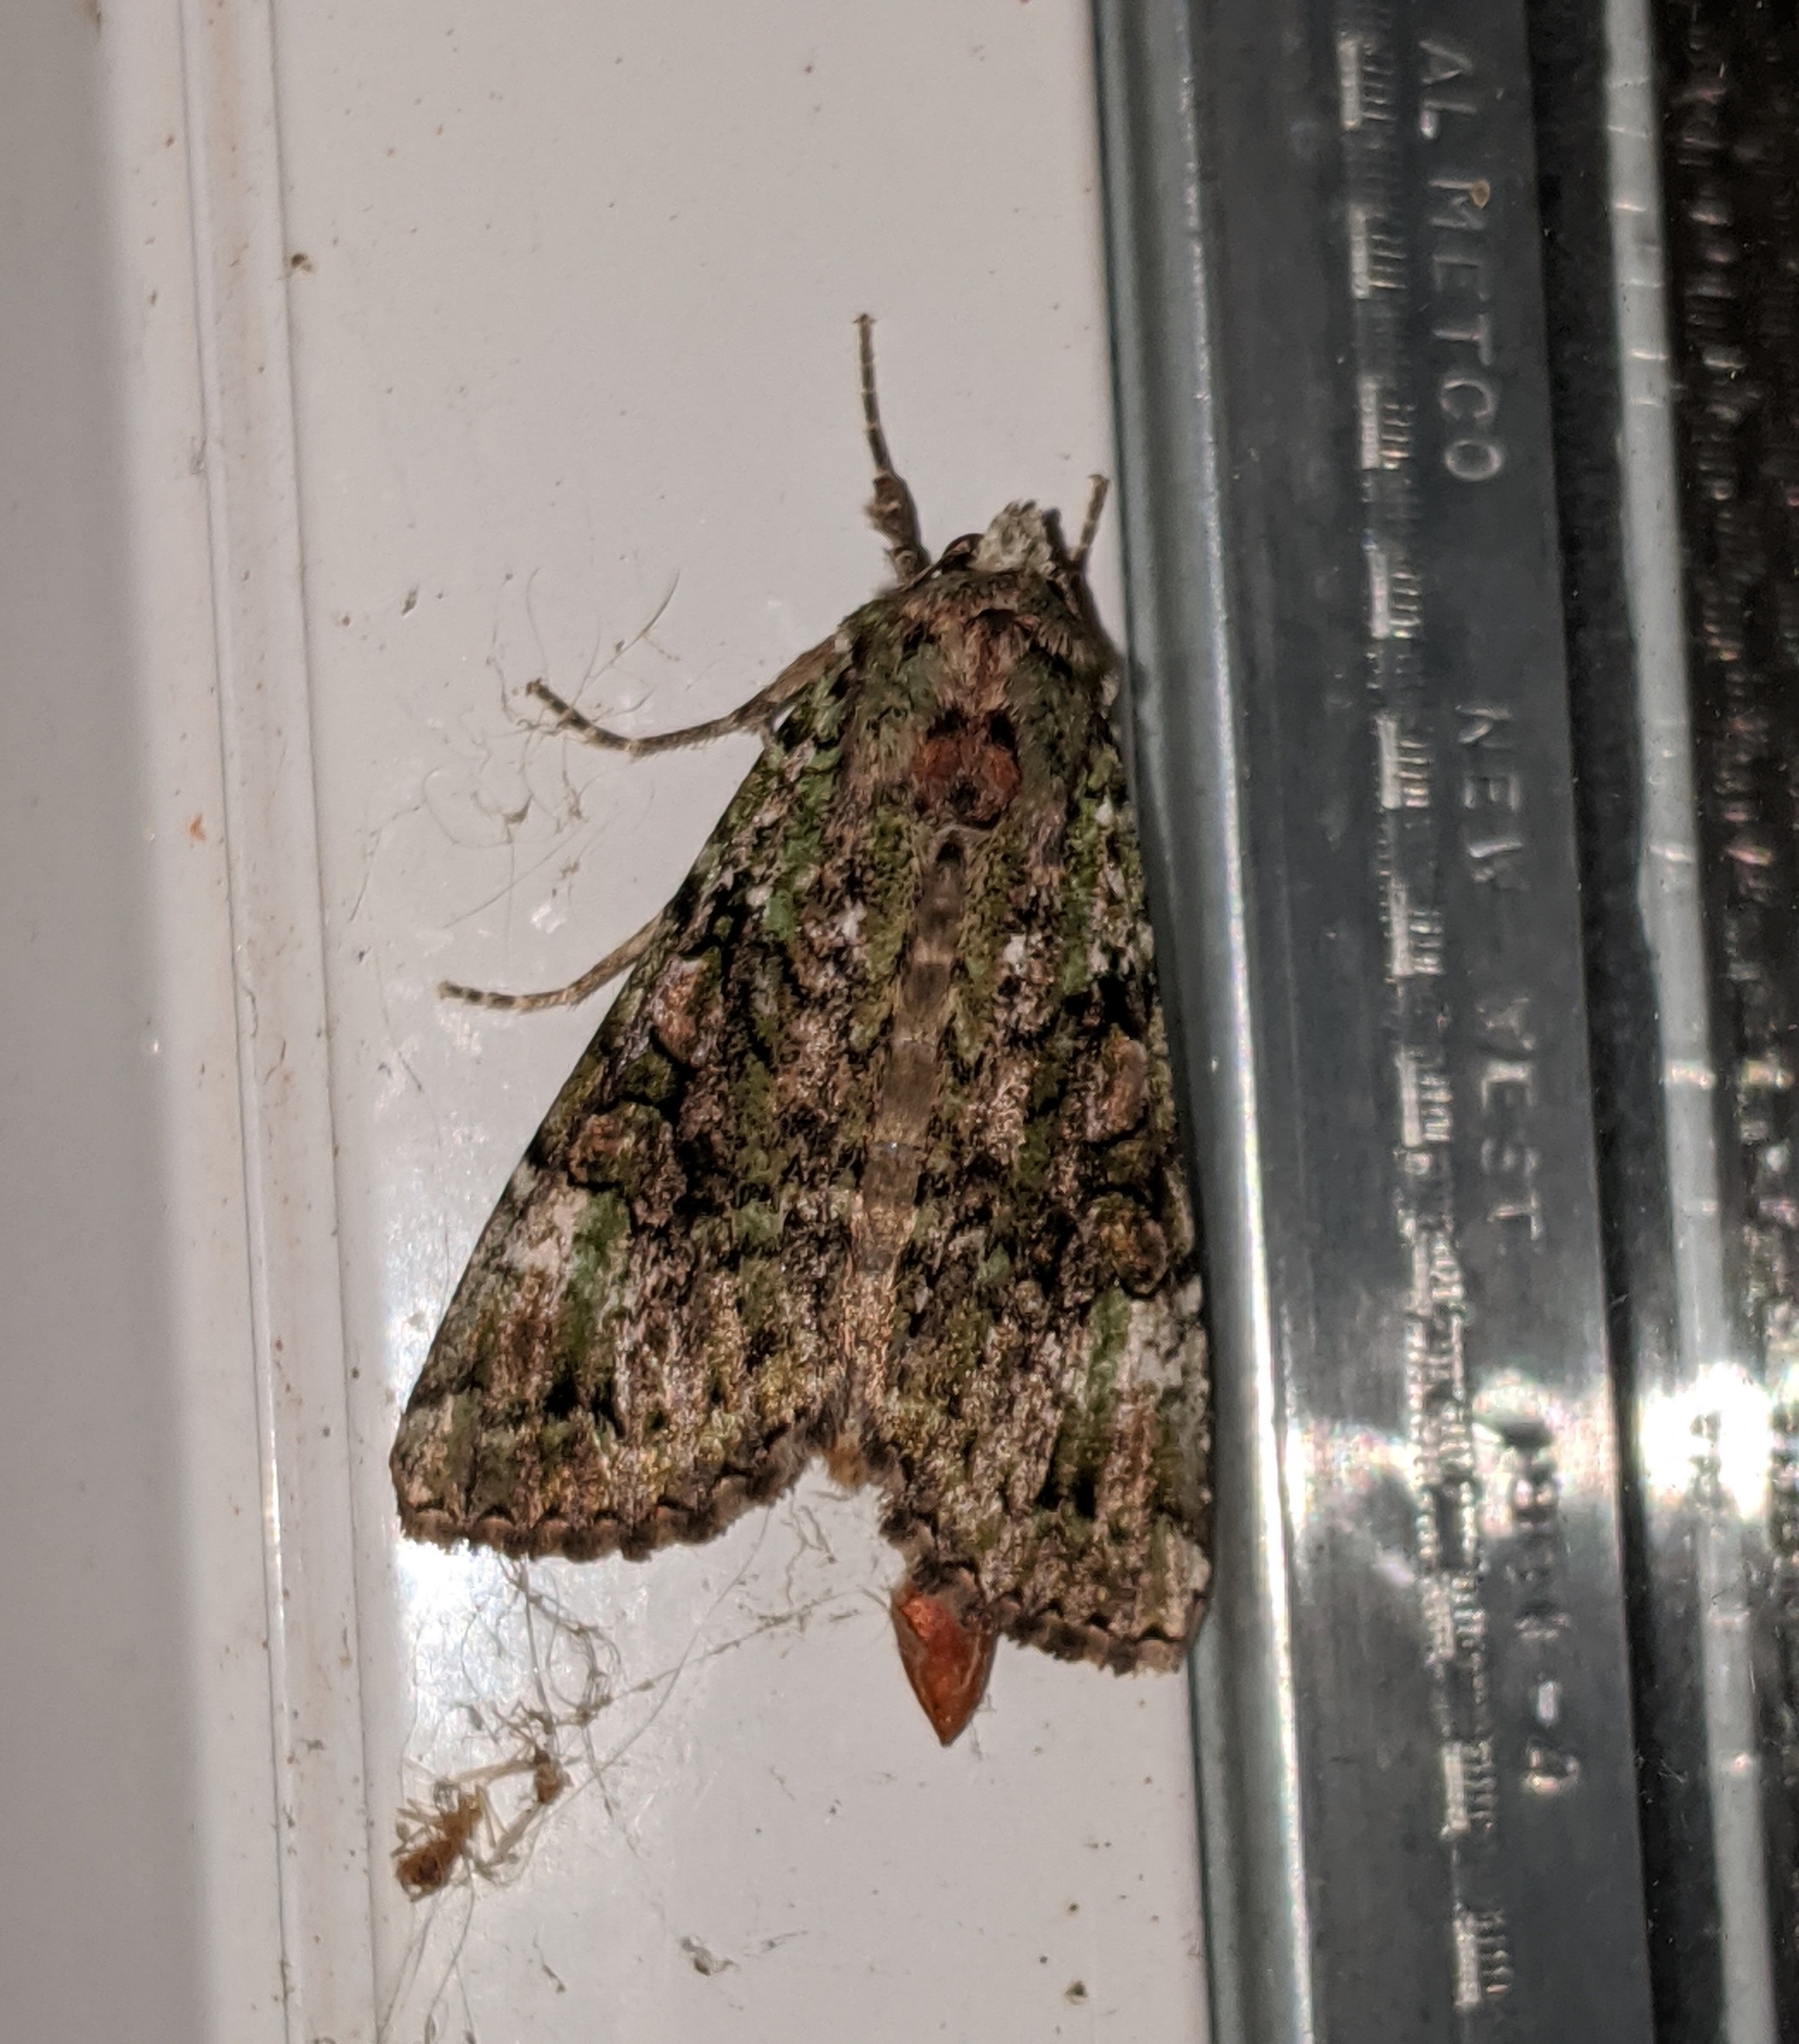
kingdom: Animalia
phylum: Arthropoda
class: Insecta
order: Lepidoptera
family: Noctuidae
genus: Anaplectoides
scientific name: Anaplectoides prasina
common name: Green arches
